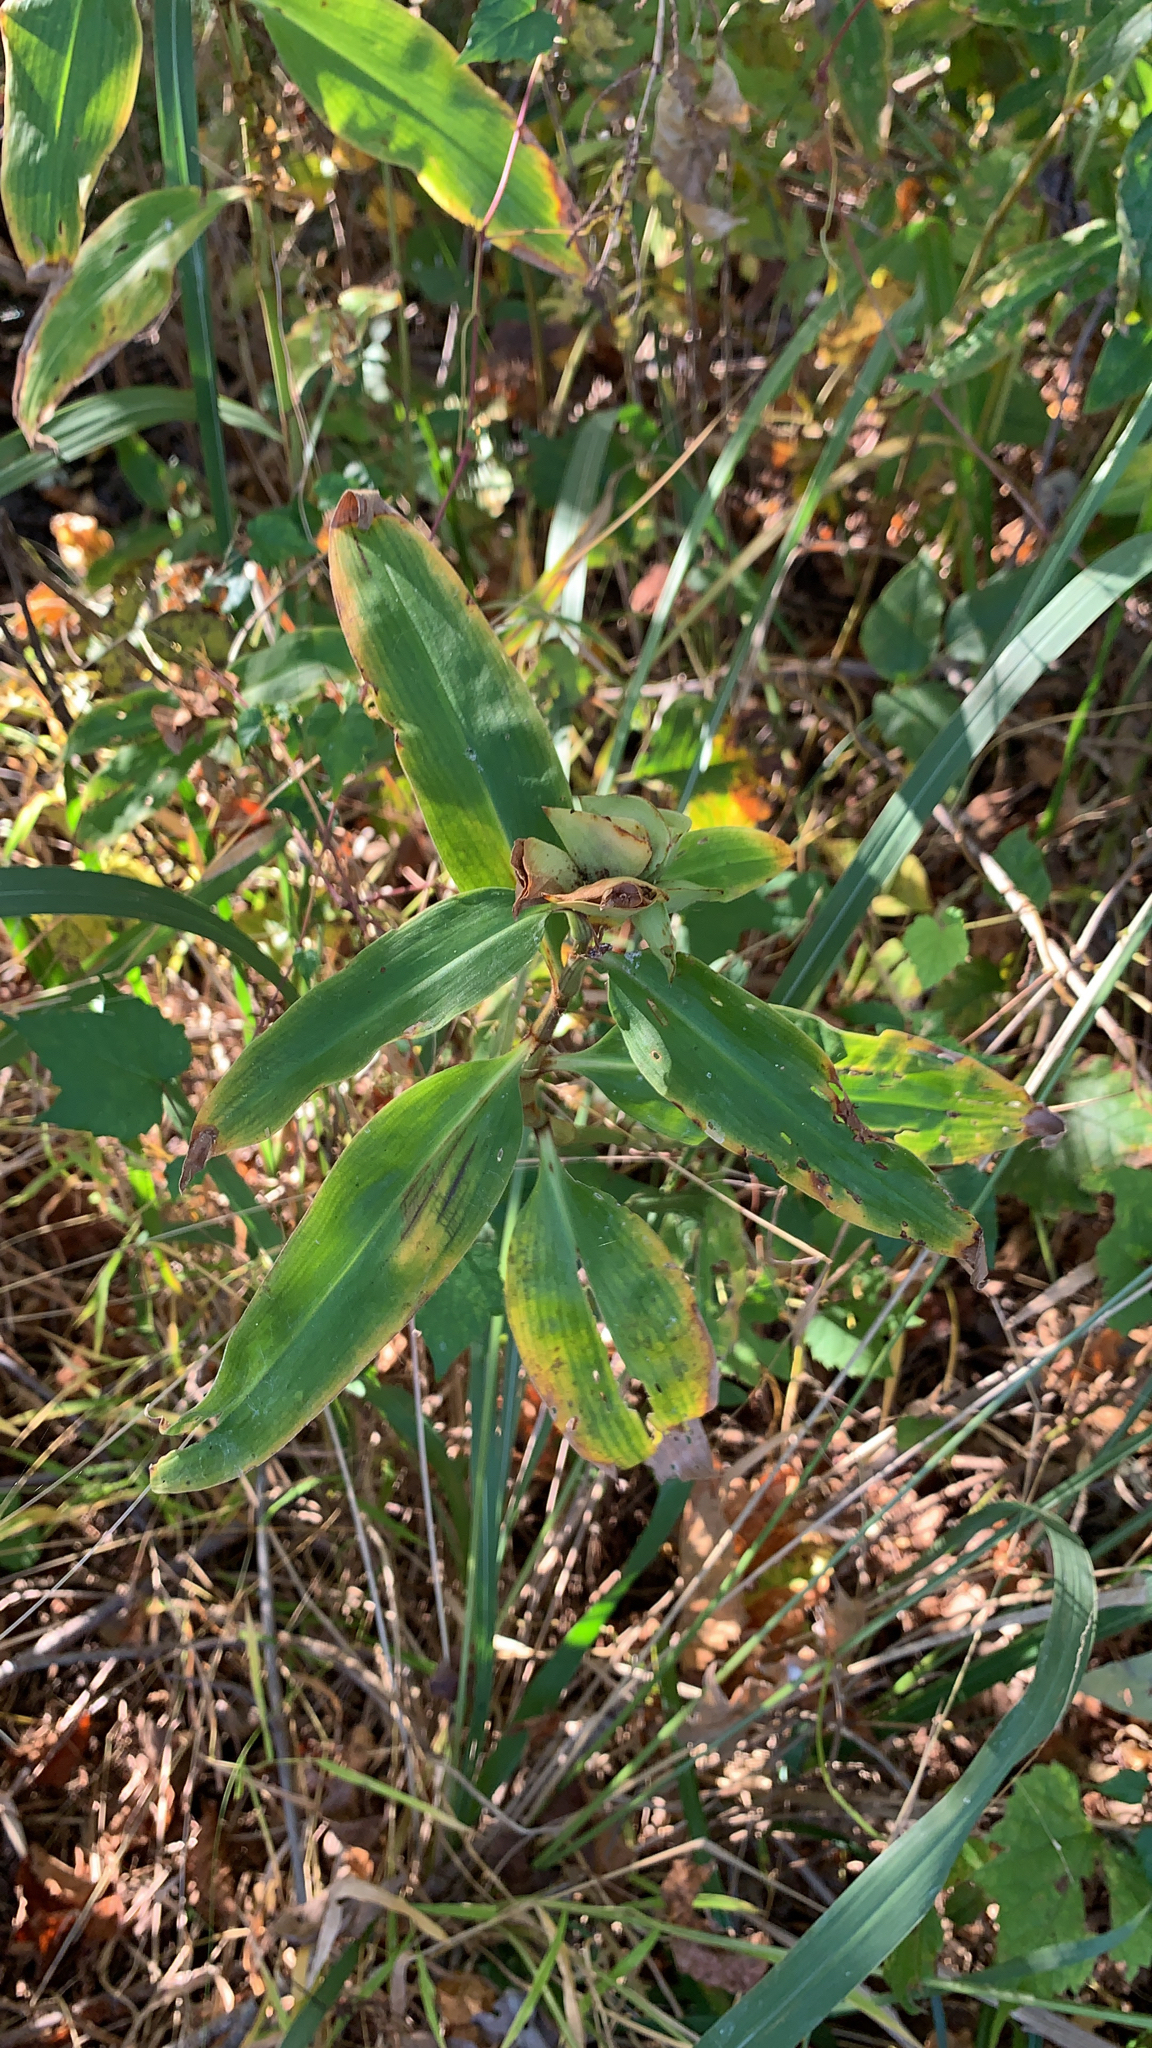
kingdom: Plantae
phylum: Tracheophyta
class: Liliopsida
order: Commelinales
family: Commelinaceae
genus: Commelina
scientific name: Commelina virginica
